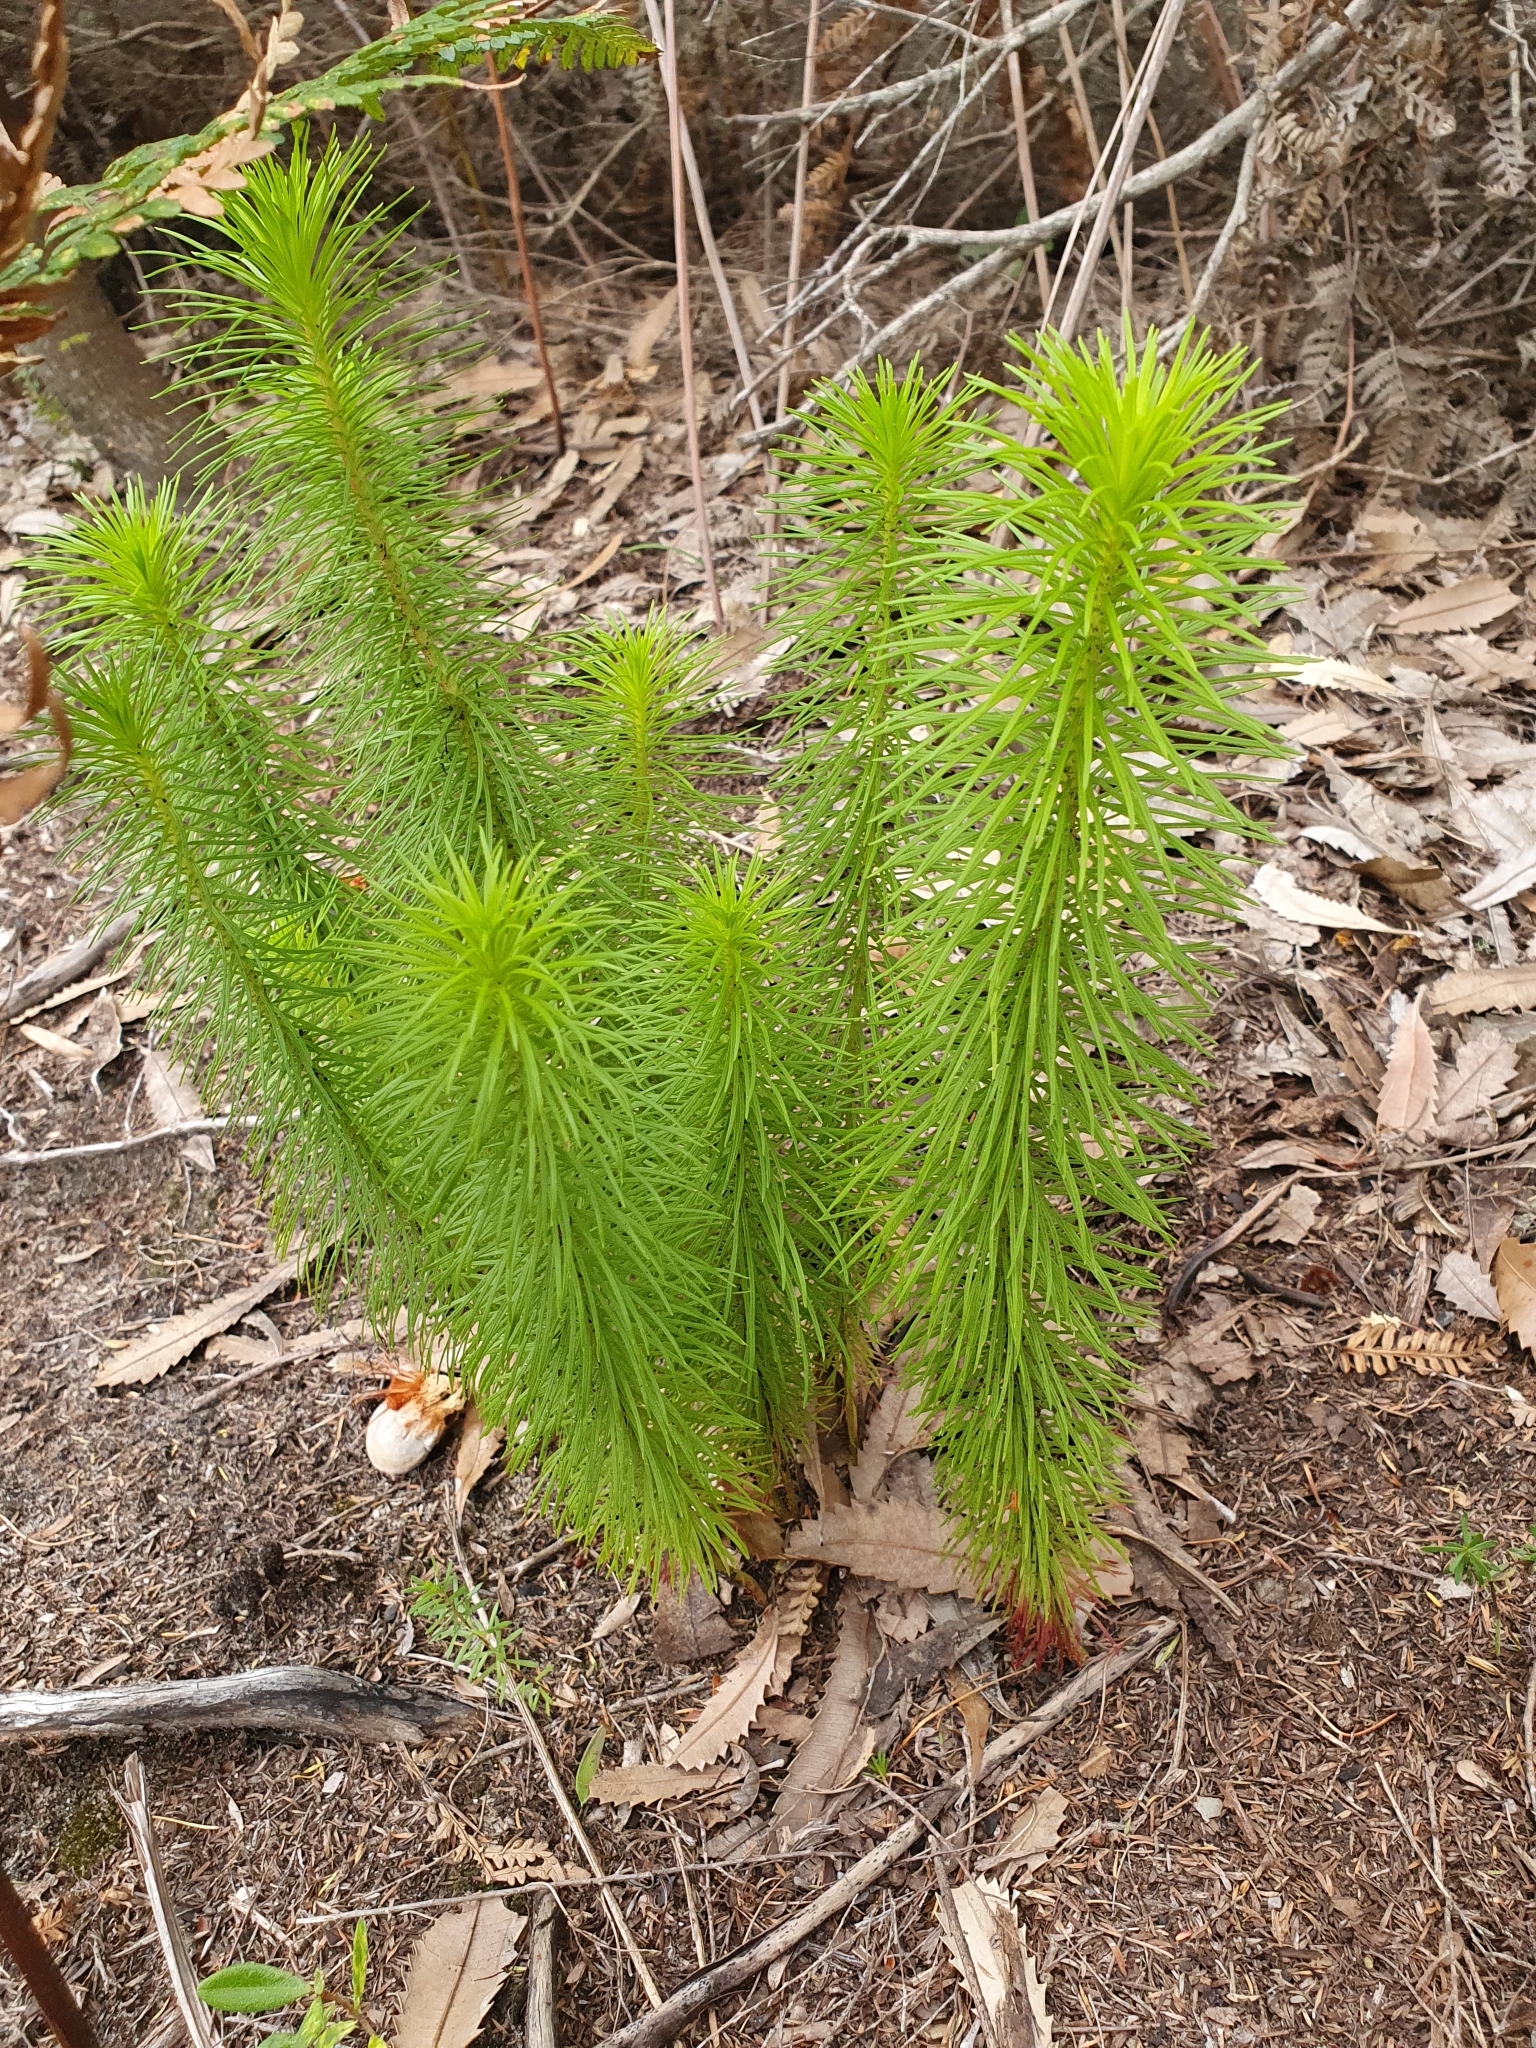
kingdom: Plantae
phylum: Tracheophyta
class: Magnoliopsida
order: Asterales
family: Stylidiaceae
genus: Stylidium
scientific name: Stylidium laricifolium
